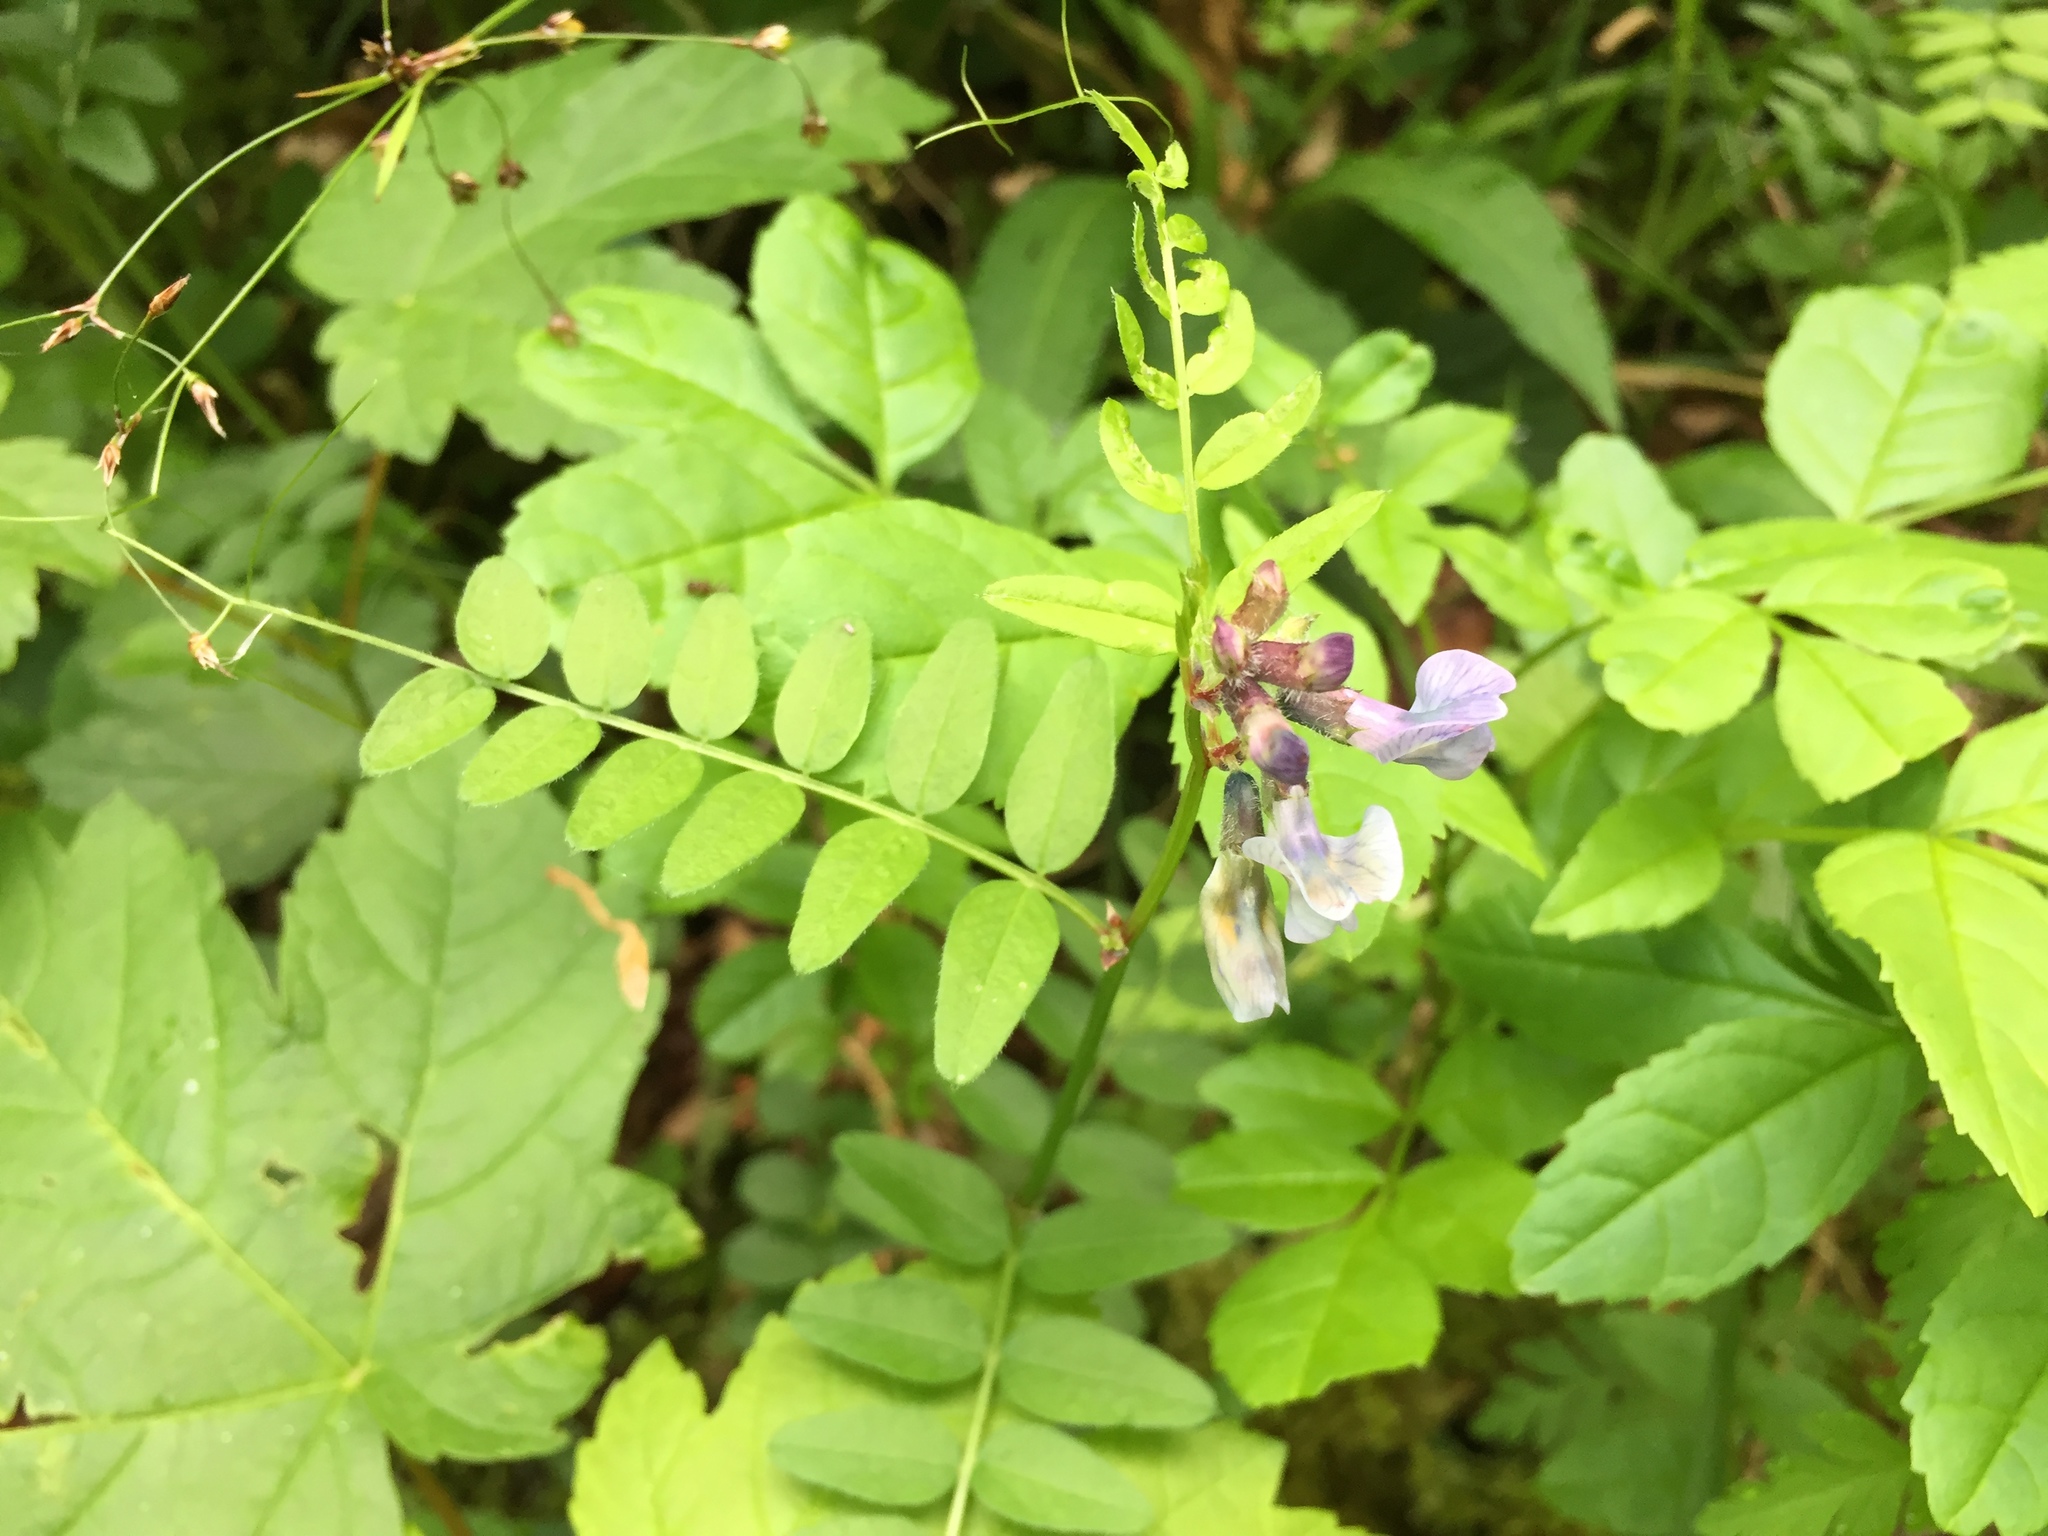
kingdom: Plantae
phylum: Tracheophyta
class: Magnoliopsida
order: Fabales
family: Fabaceae
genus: Vicia
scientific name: Vicia sepium
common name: Bush vetch
